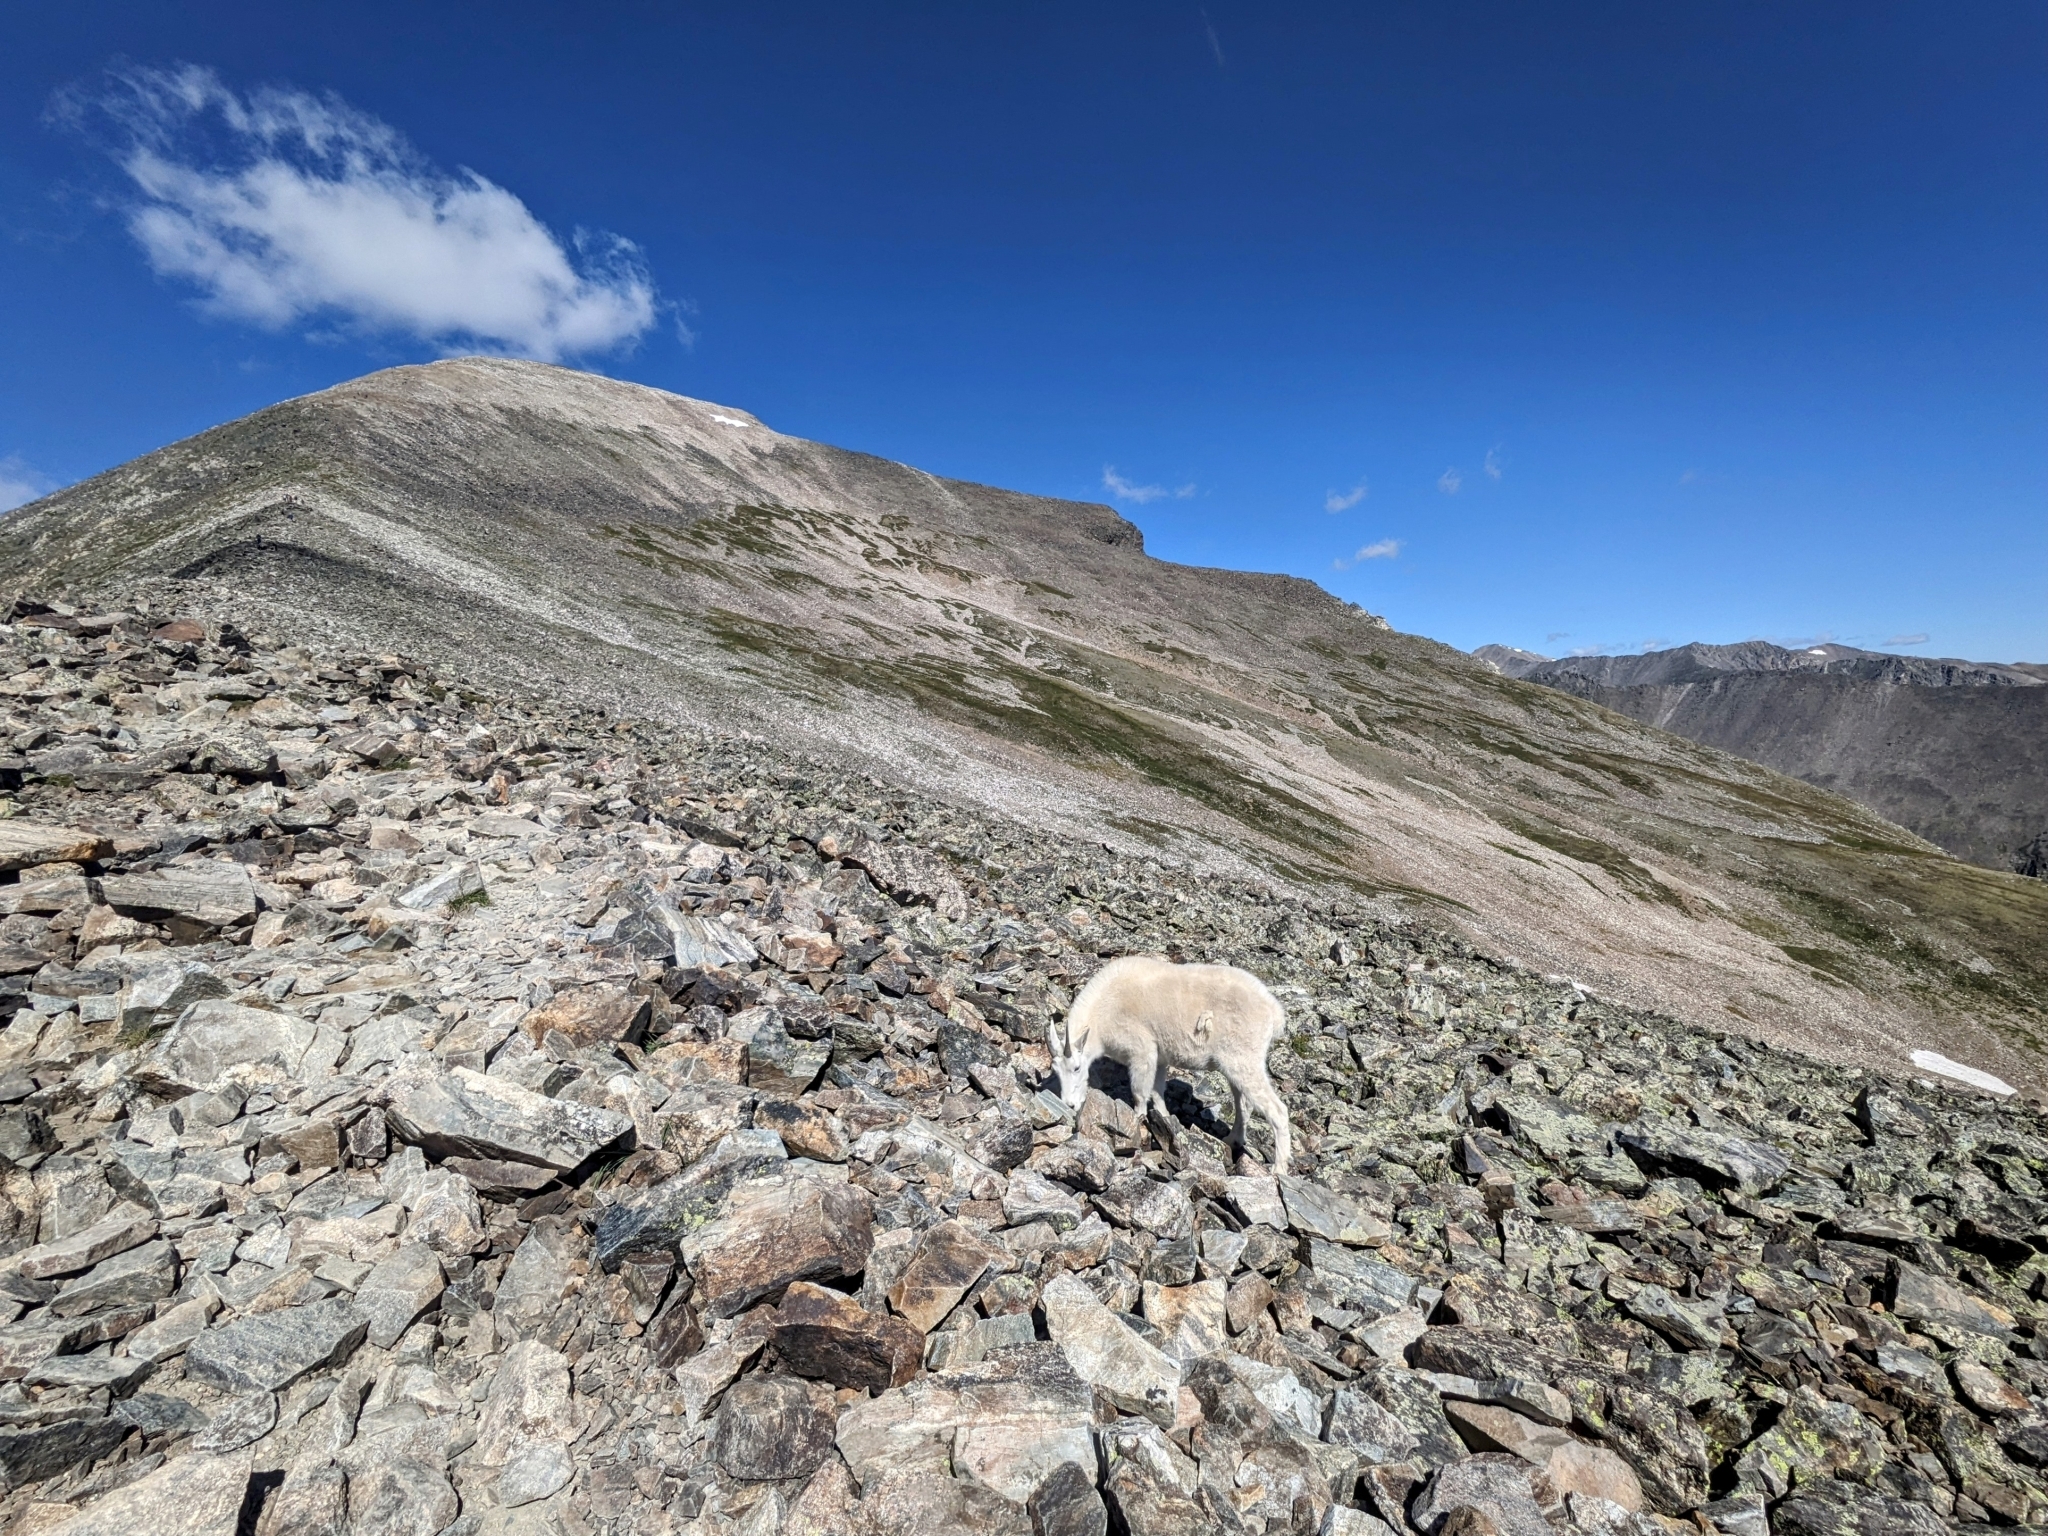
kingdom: Animalia
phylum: Chordata
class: Mammalia
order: Artiodactyla
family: Bovidae
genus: Oreamnos
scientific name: Oreamnos americanus
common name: Mountain goat
